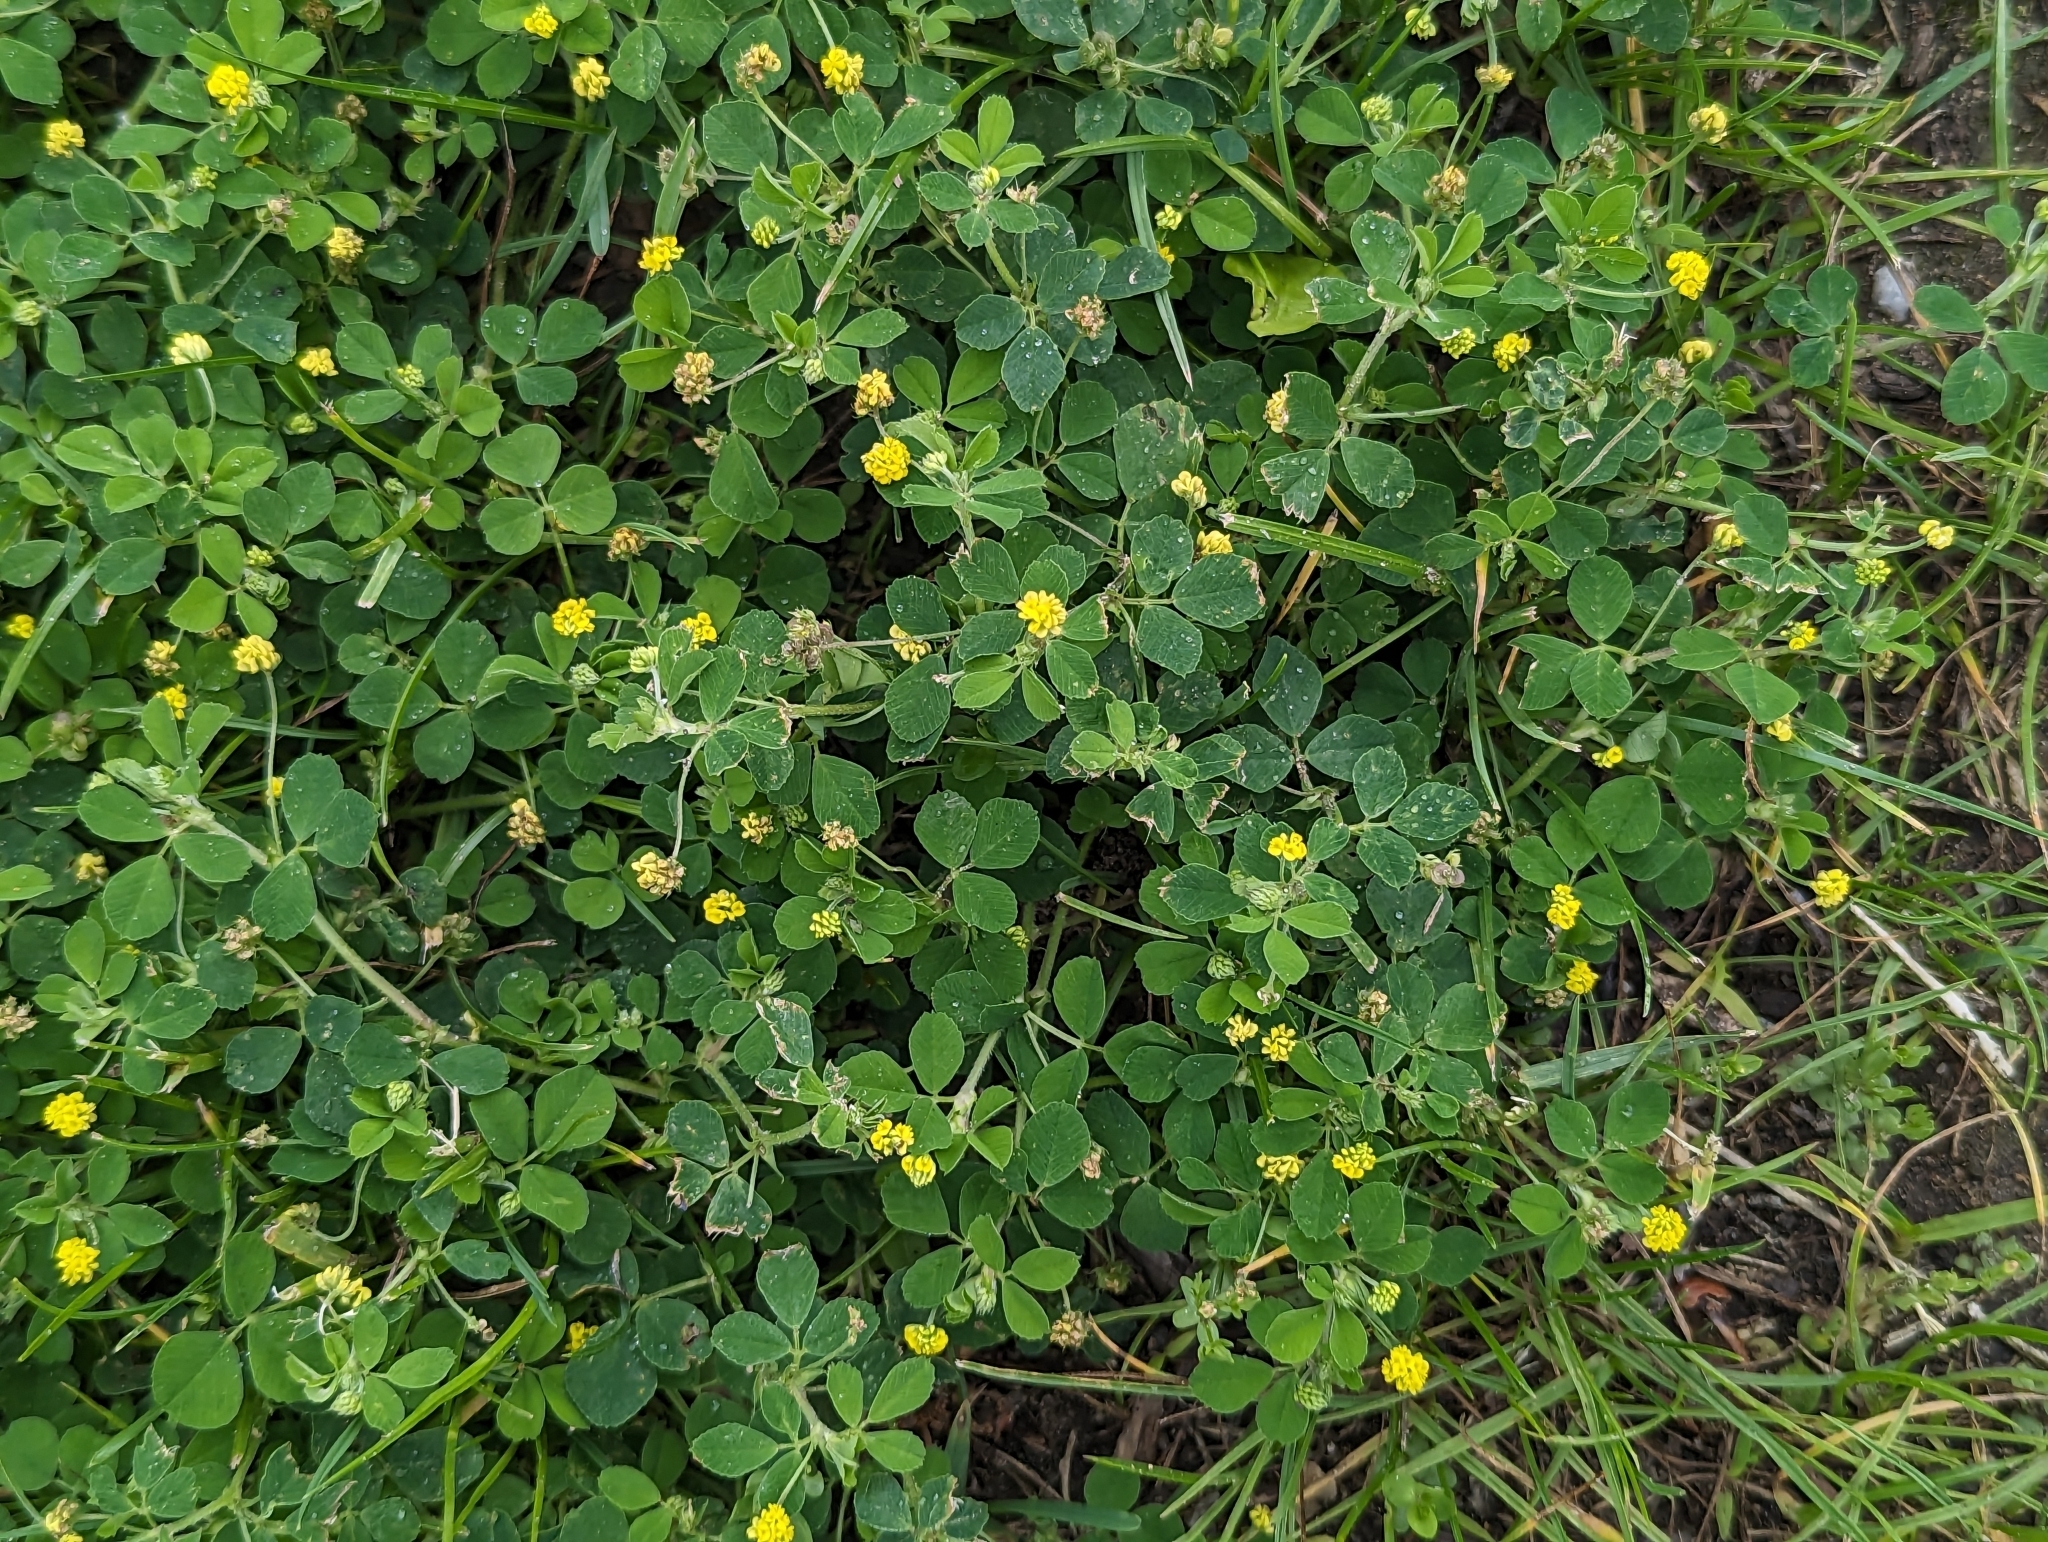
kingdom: Plantae
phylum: Tracheophyta
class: Magnoliopsida
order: Fabales
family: Fabaceae
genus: Medicago
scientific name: Medicago lupulina
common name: Black medick
